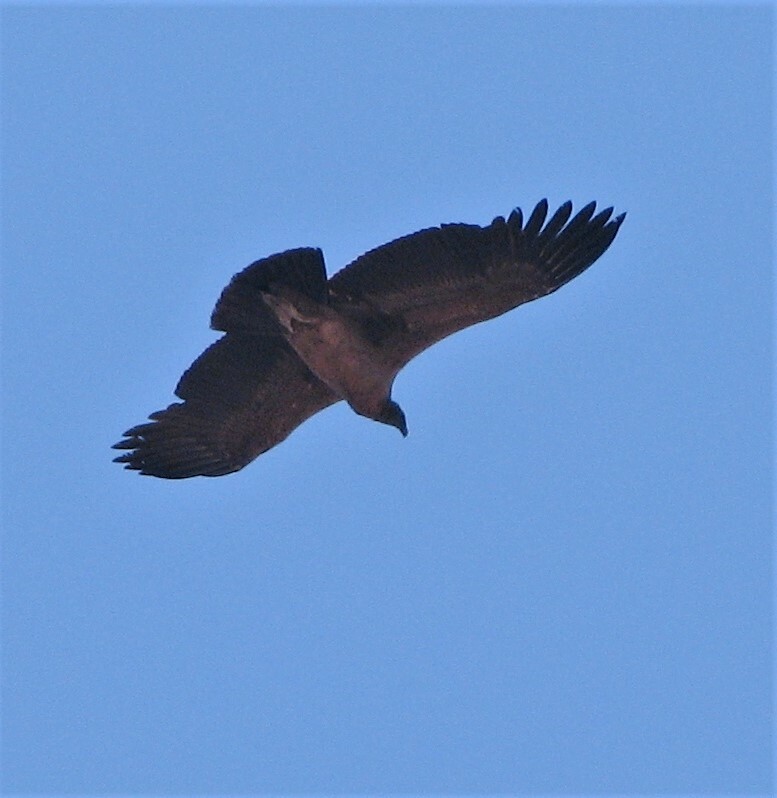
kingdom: Animalia
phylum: Chordata
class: Aves
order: Accipitriformes
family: Cathartidae
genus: Vultur
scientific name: Vultur gryphus
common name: Andean condor
